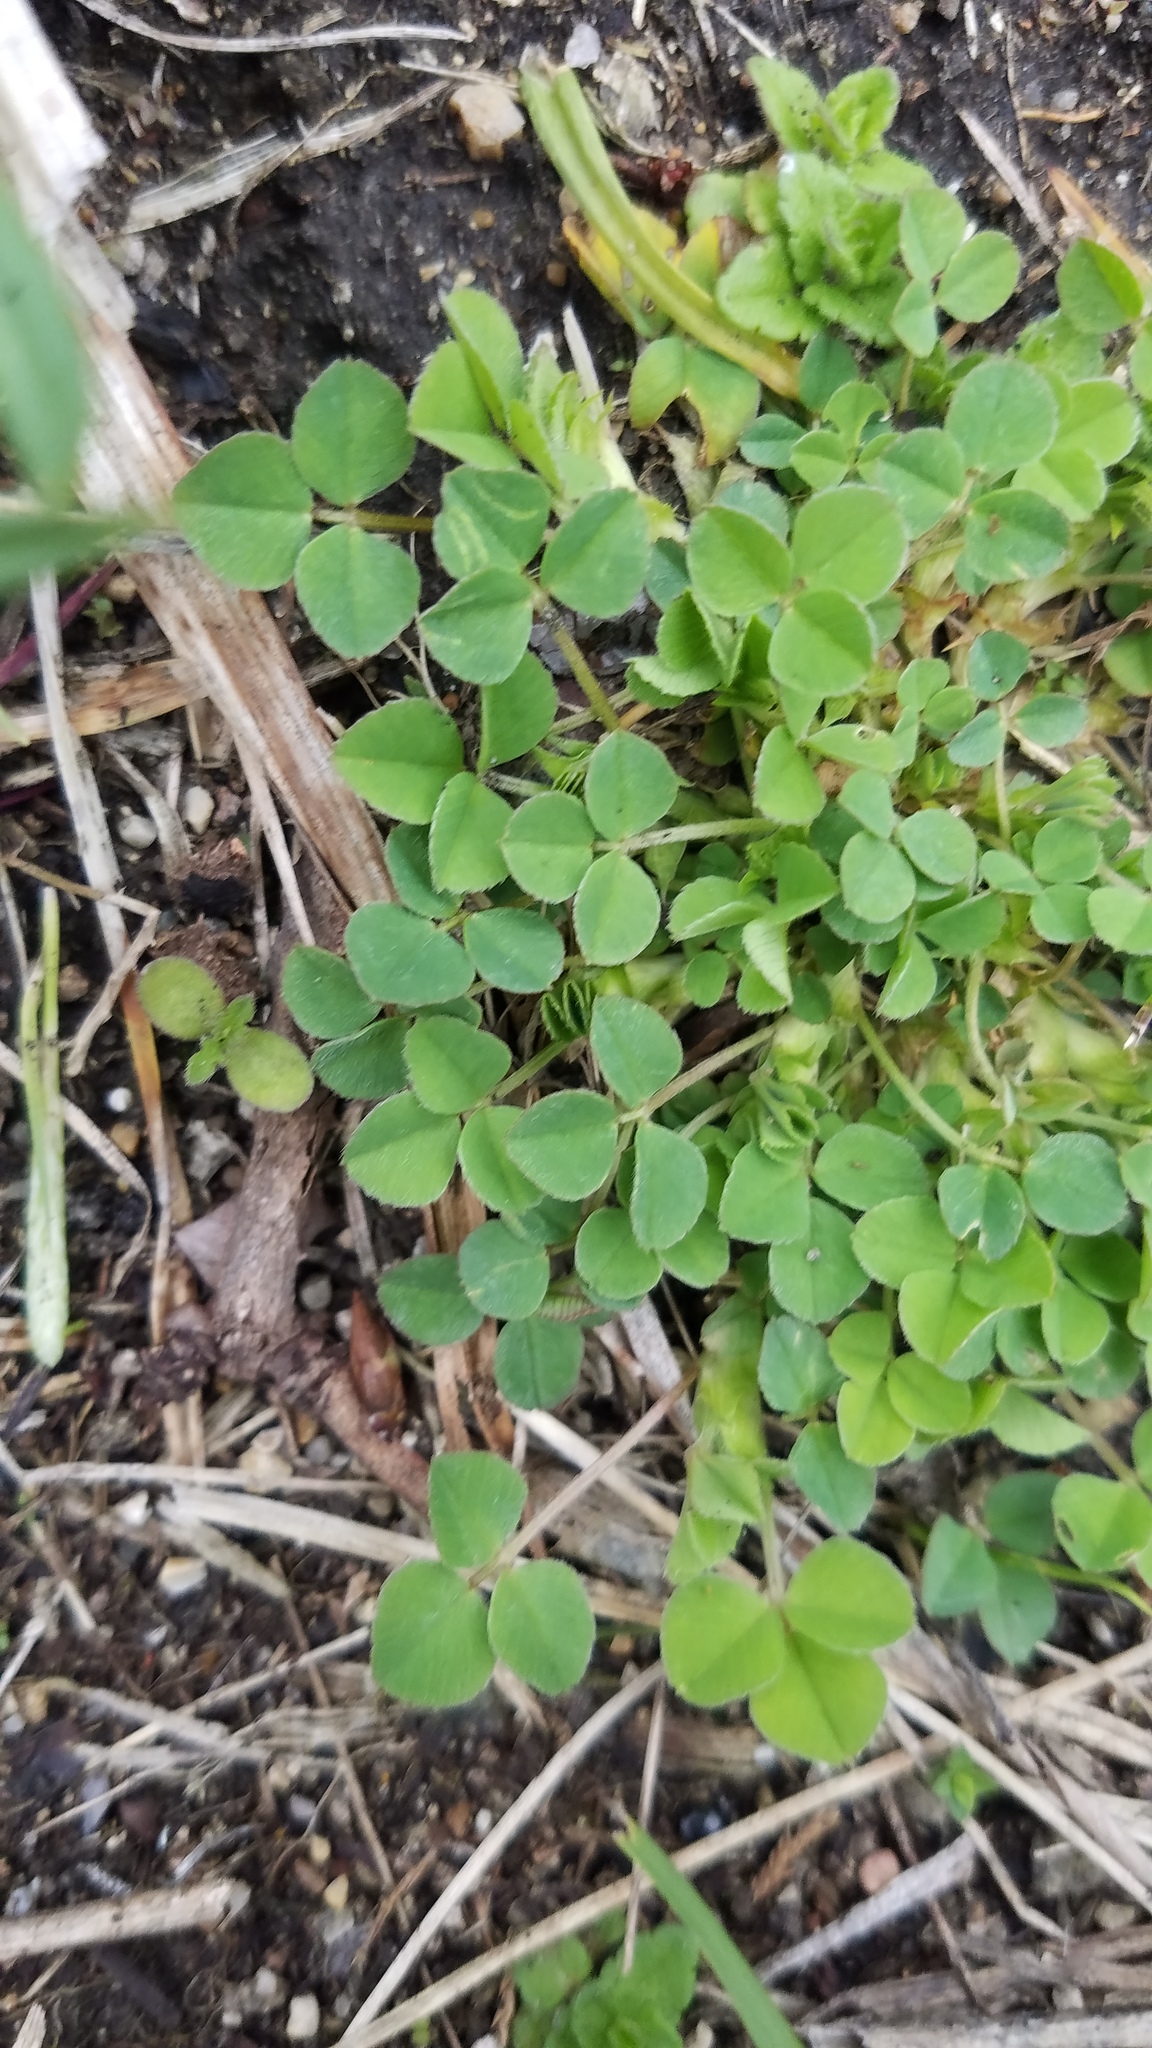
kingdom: Plantae
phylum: Tracheophyta
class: Magnoliopsida
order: Fabales
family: Fabaceae
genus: Medicago
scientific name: Medicago lupulina
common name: Black medick
